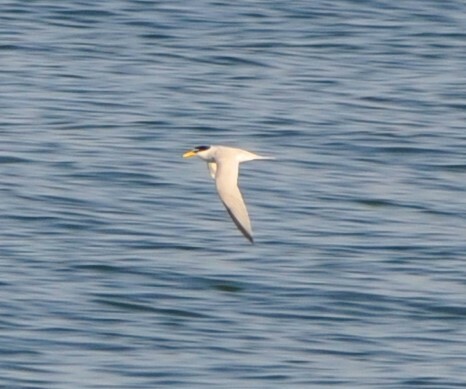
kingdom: Animalia
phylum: Chordata
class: Aves
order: Charadriiformes
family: Laridae
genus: Sternula
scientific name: Sternula antillarum
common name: Least tern
